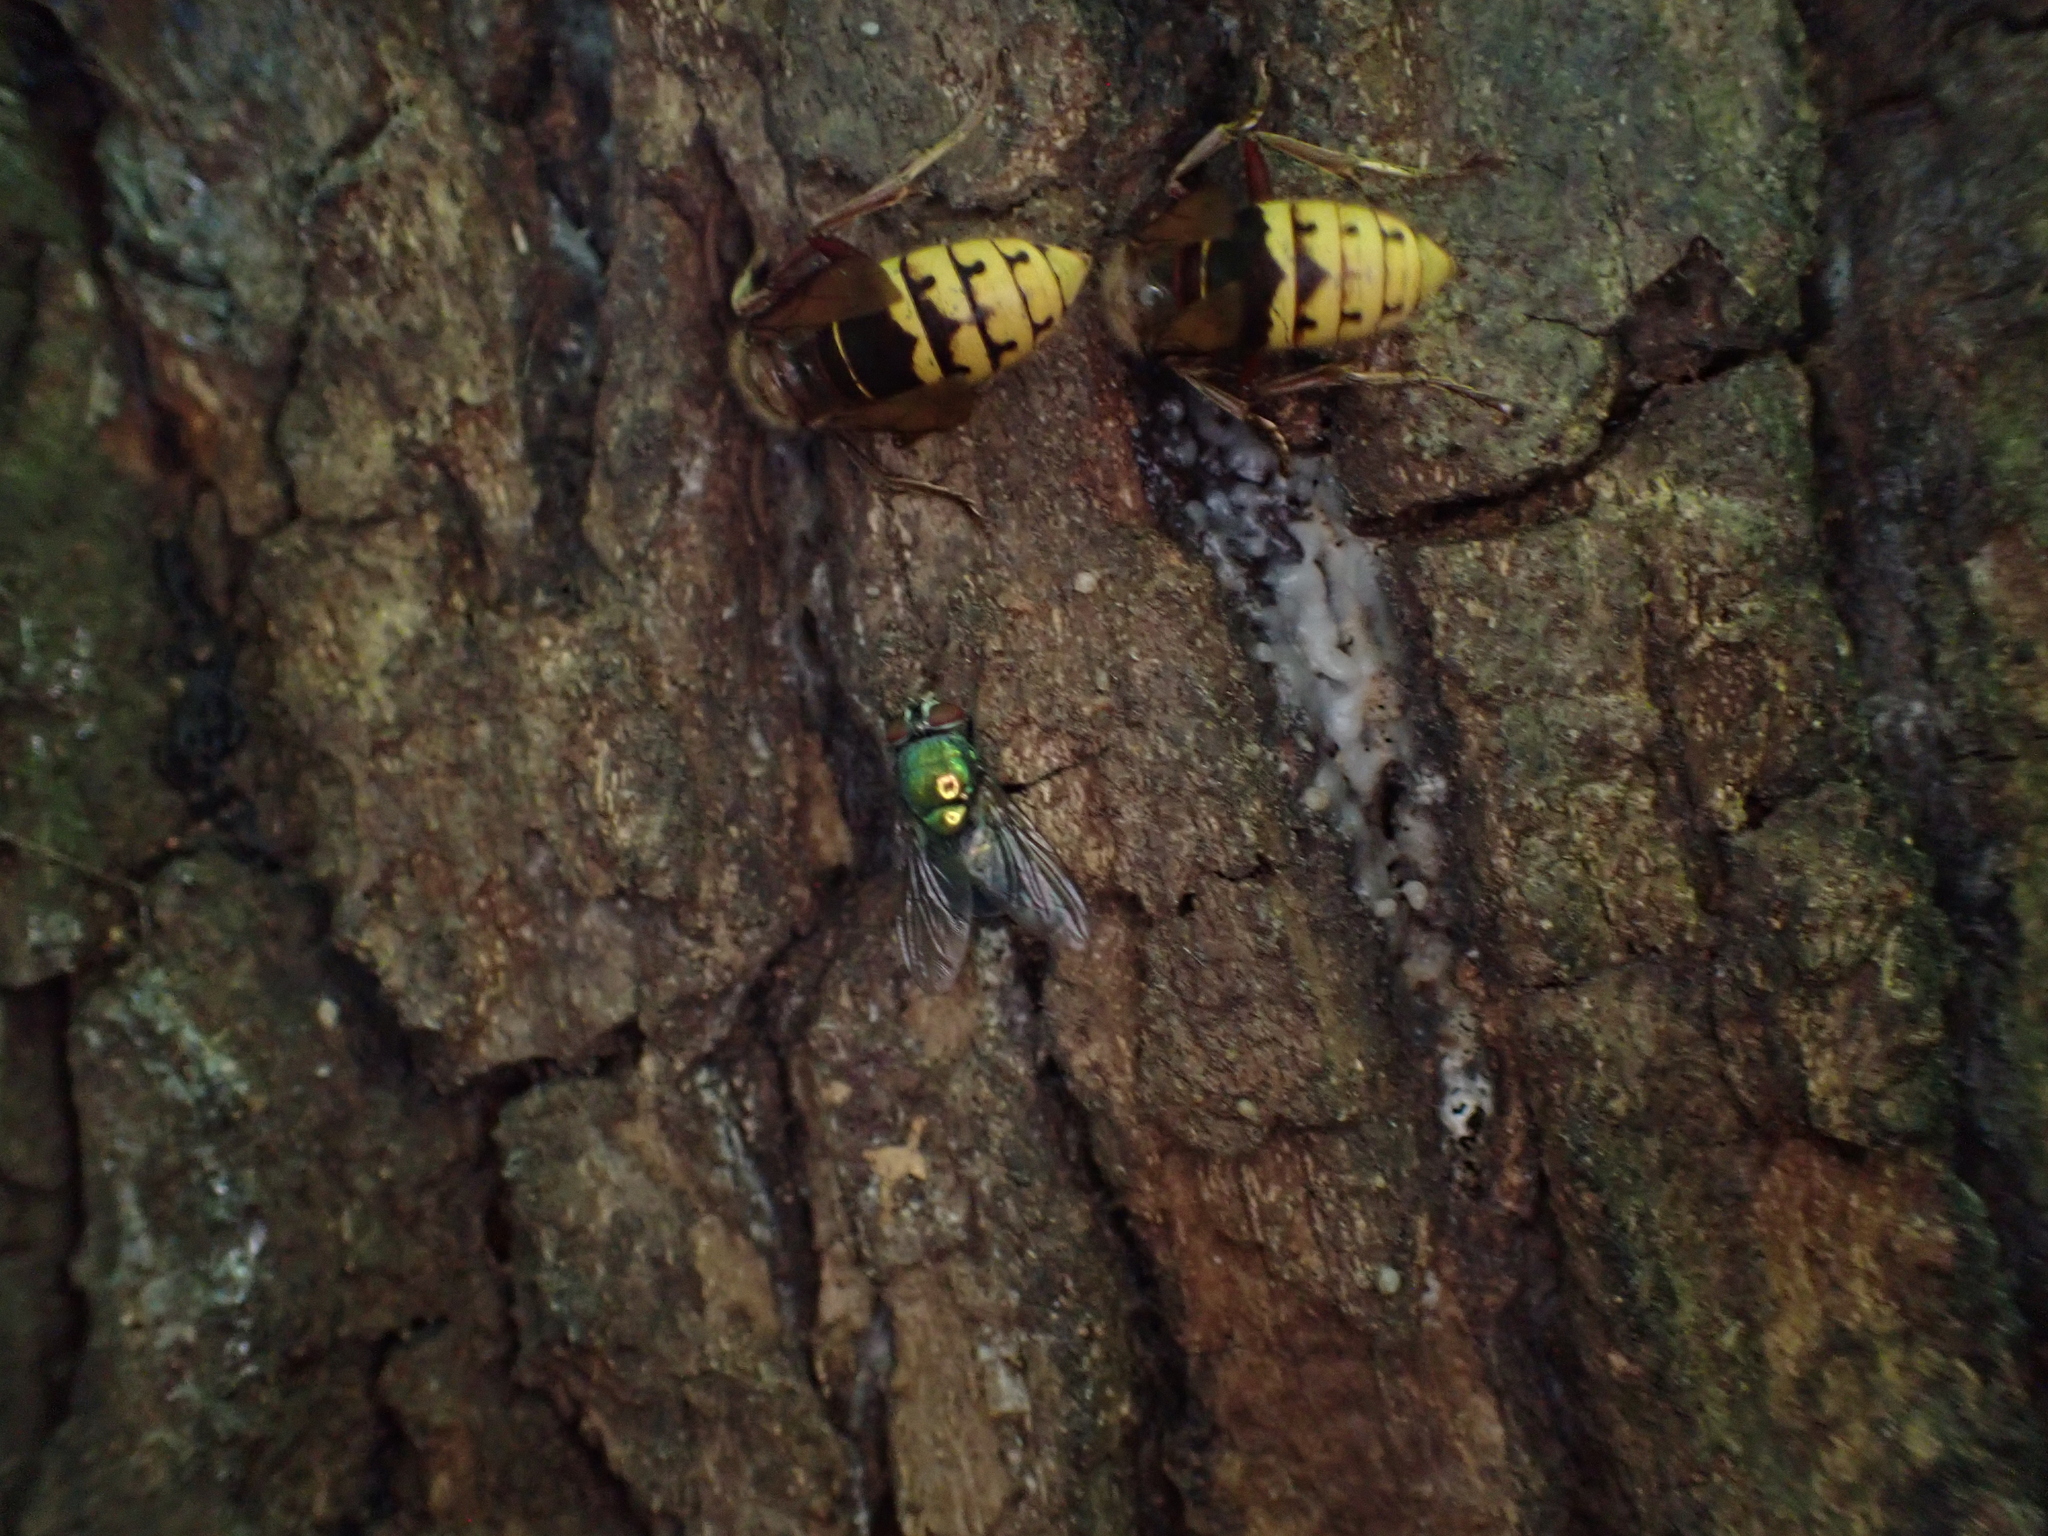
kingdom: Animalia
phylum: Arthropoda
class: Insecta
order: Hymenoptera
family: Vespidae
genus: Vespa
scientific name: Vespa crabro
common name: Hornet
